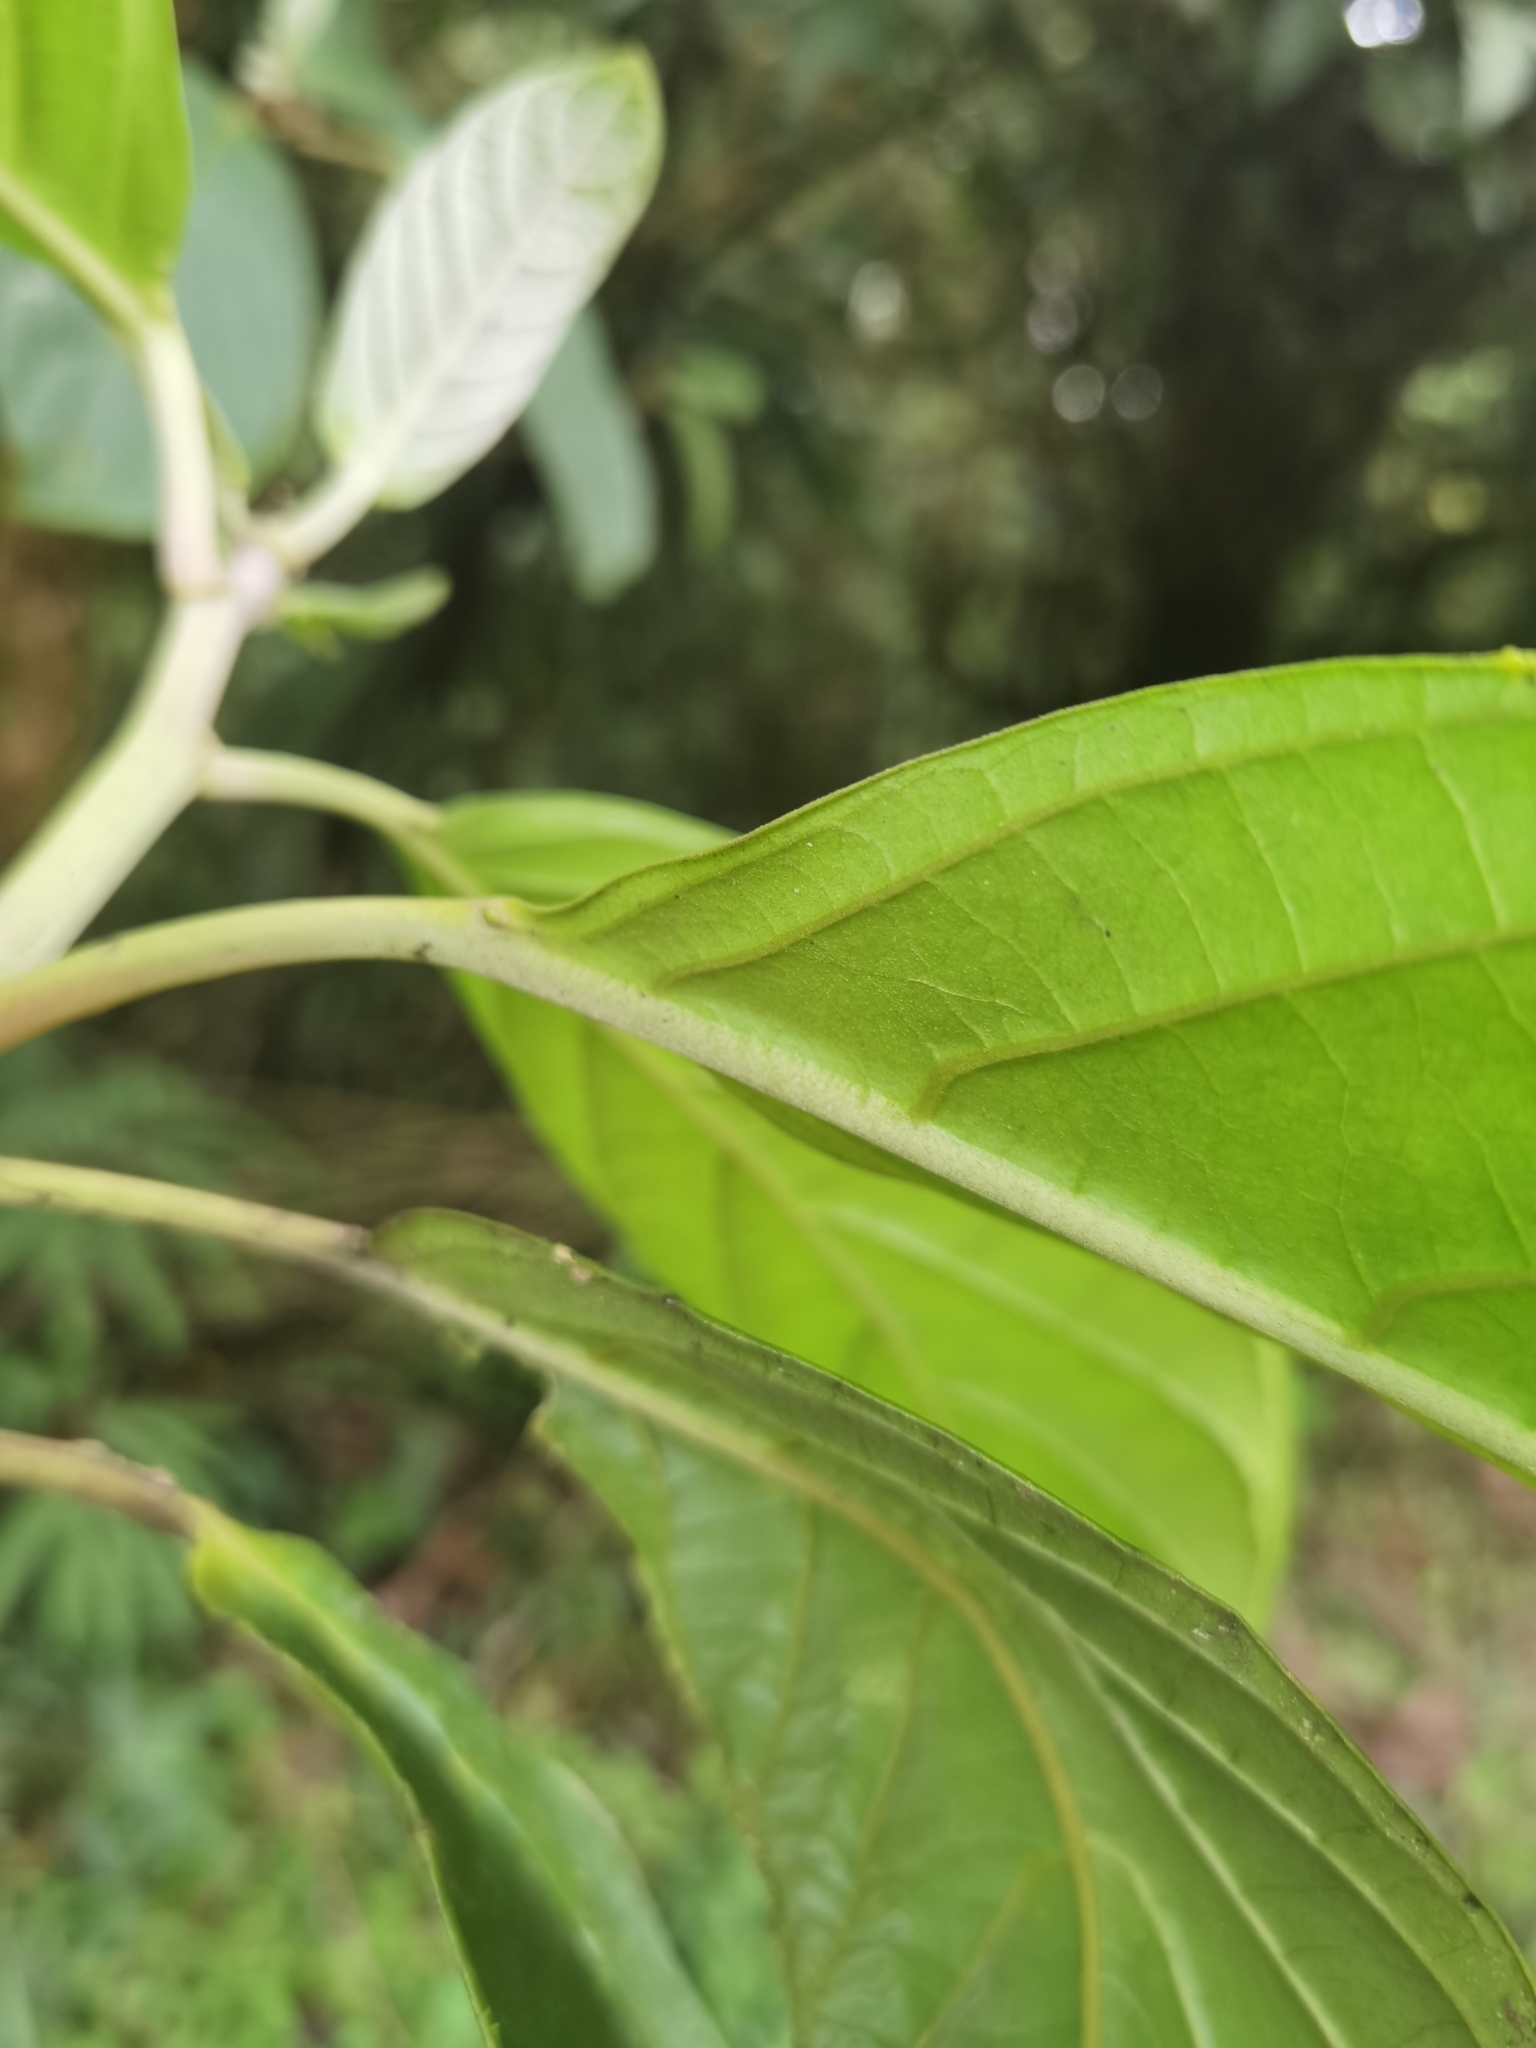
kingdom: Plantae
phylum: Tracheophyta
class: Magnoliopsida
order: Malpighiales
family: Euphorbiaceae
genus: Tetrorchidium
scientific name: Tetrorchidium euryphyllum
